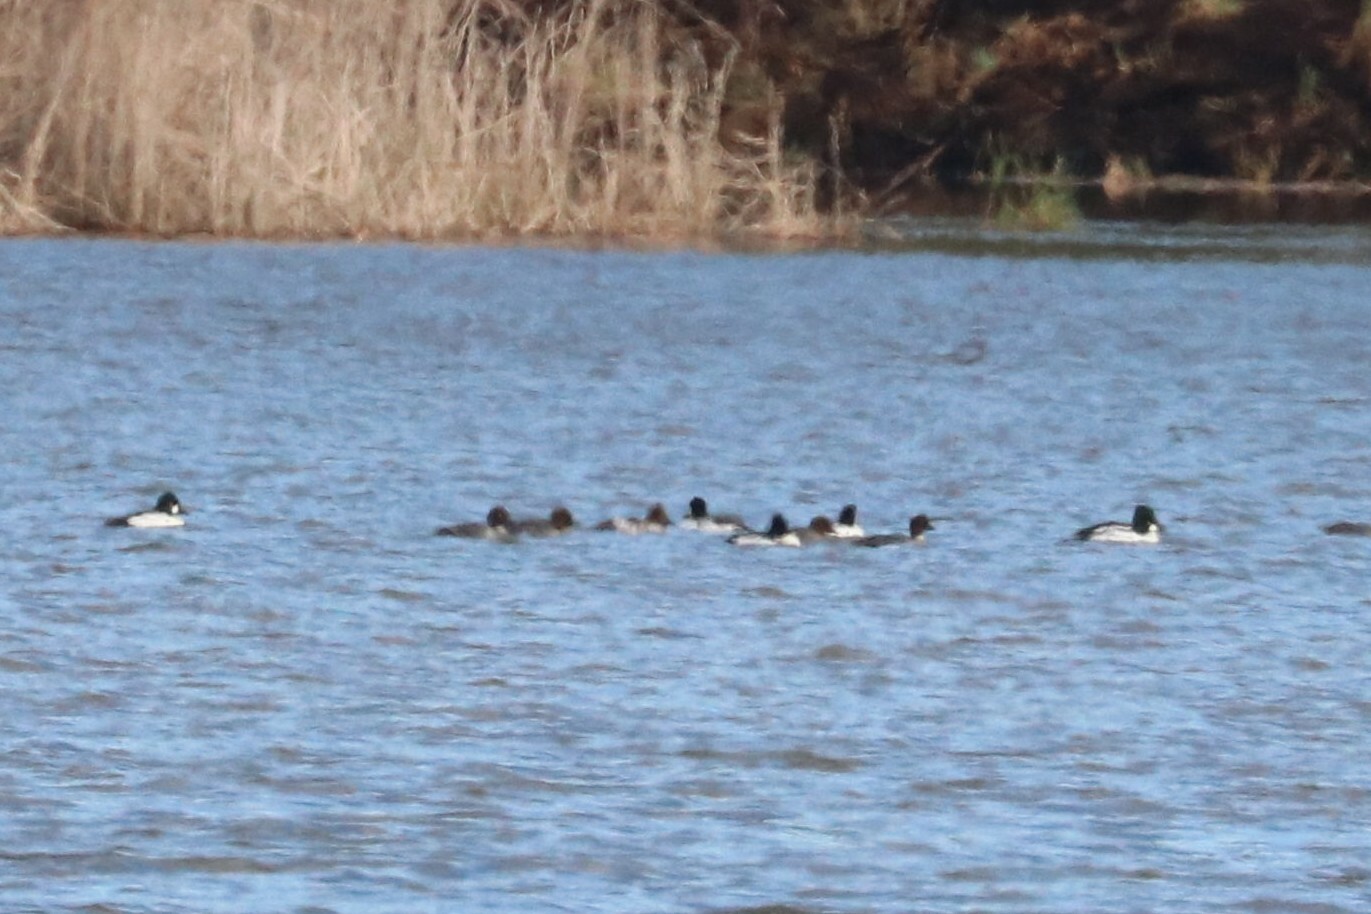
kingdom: Animalia
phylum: Chordata
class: Aves
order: Anseriformes
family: Anatidae
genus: Bucephala
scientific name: Bucephala clangula
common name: Common goldeneye
